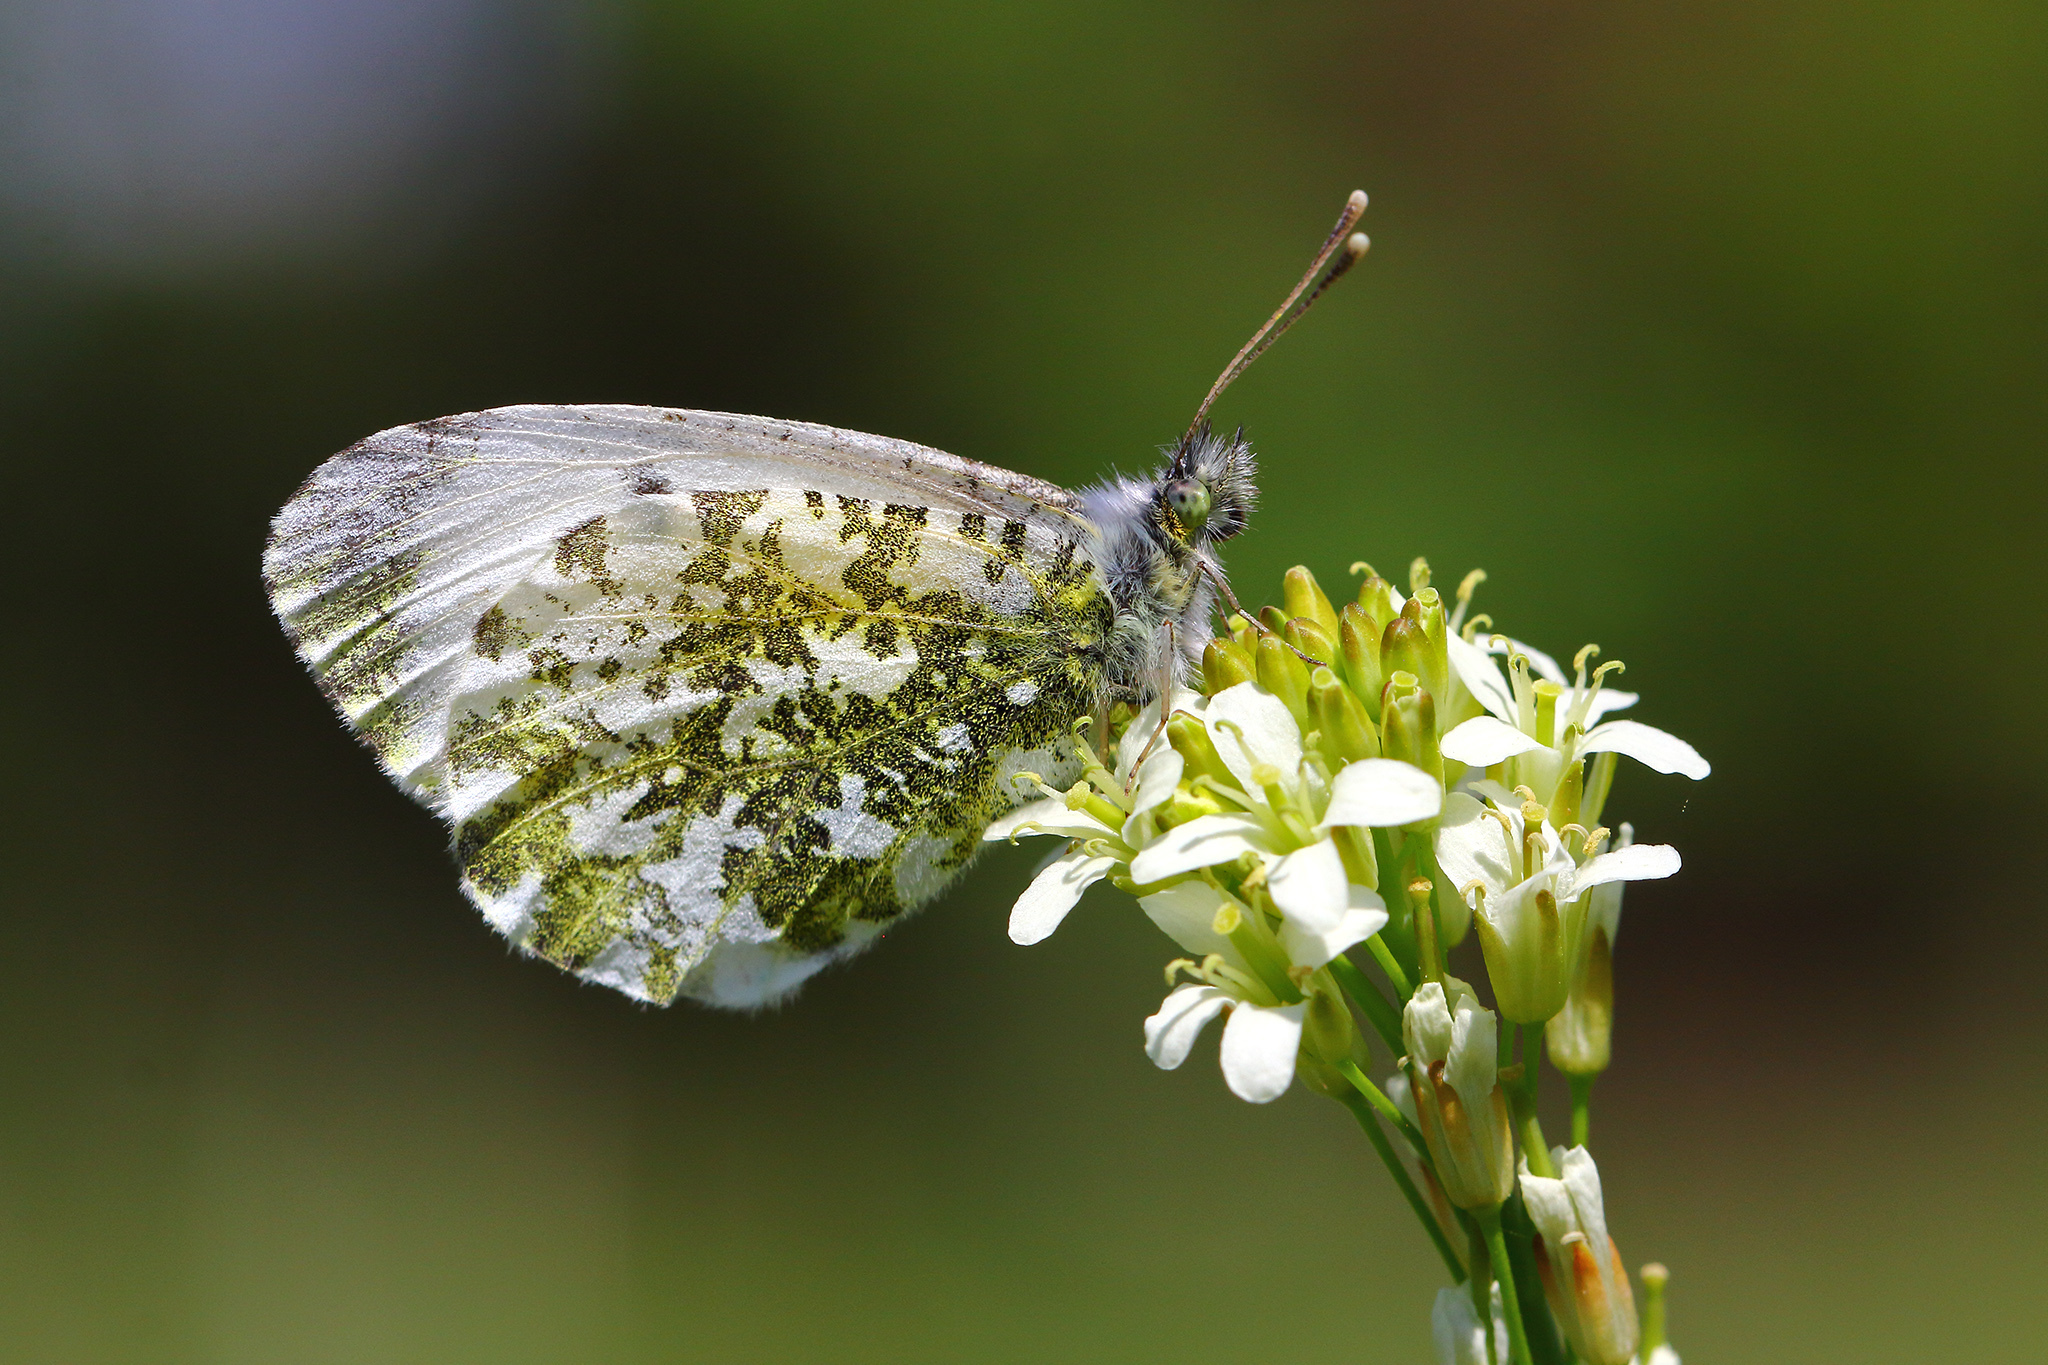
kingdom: Animalia
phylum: Arthropoda
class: Insecta
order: Lepidoptera
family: Pieridae
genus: Anthocharis
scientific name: Anthocharis cardamines
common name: Orange-tip
